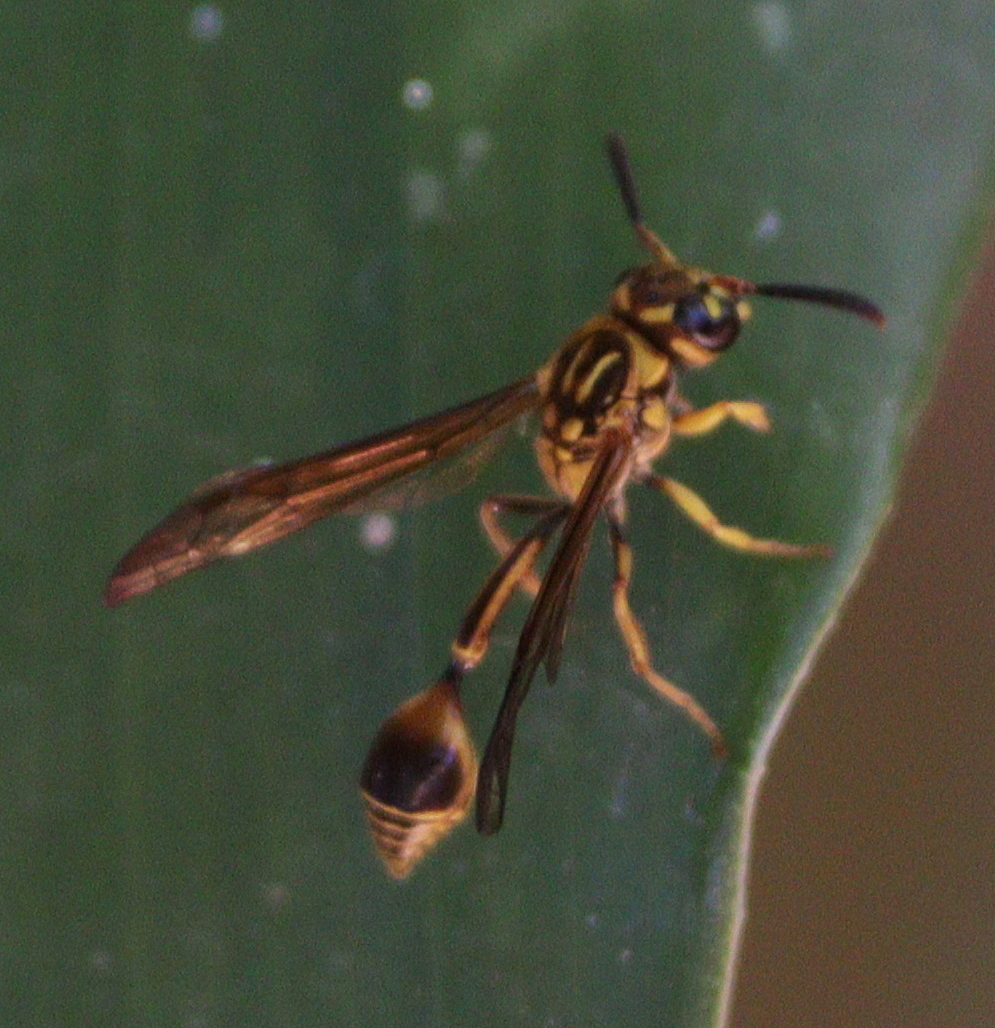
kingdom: Animalia
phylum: Arthropoda
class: Insecta
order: Hymenoptera
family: Eumenidae
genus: Zethus
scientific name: Zethus adonis
